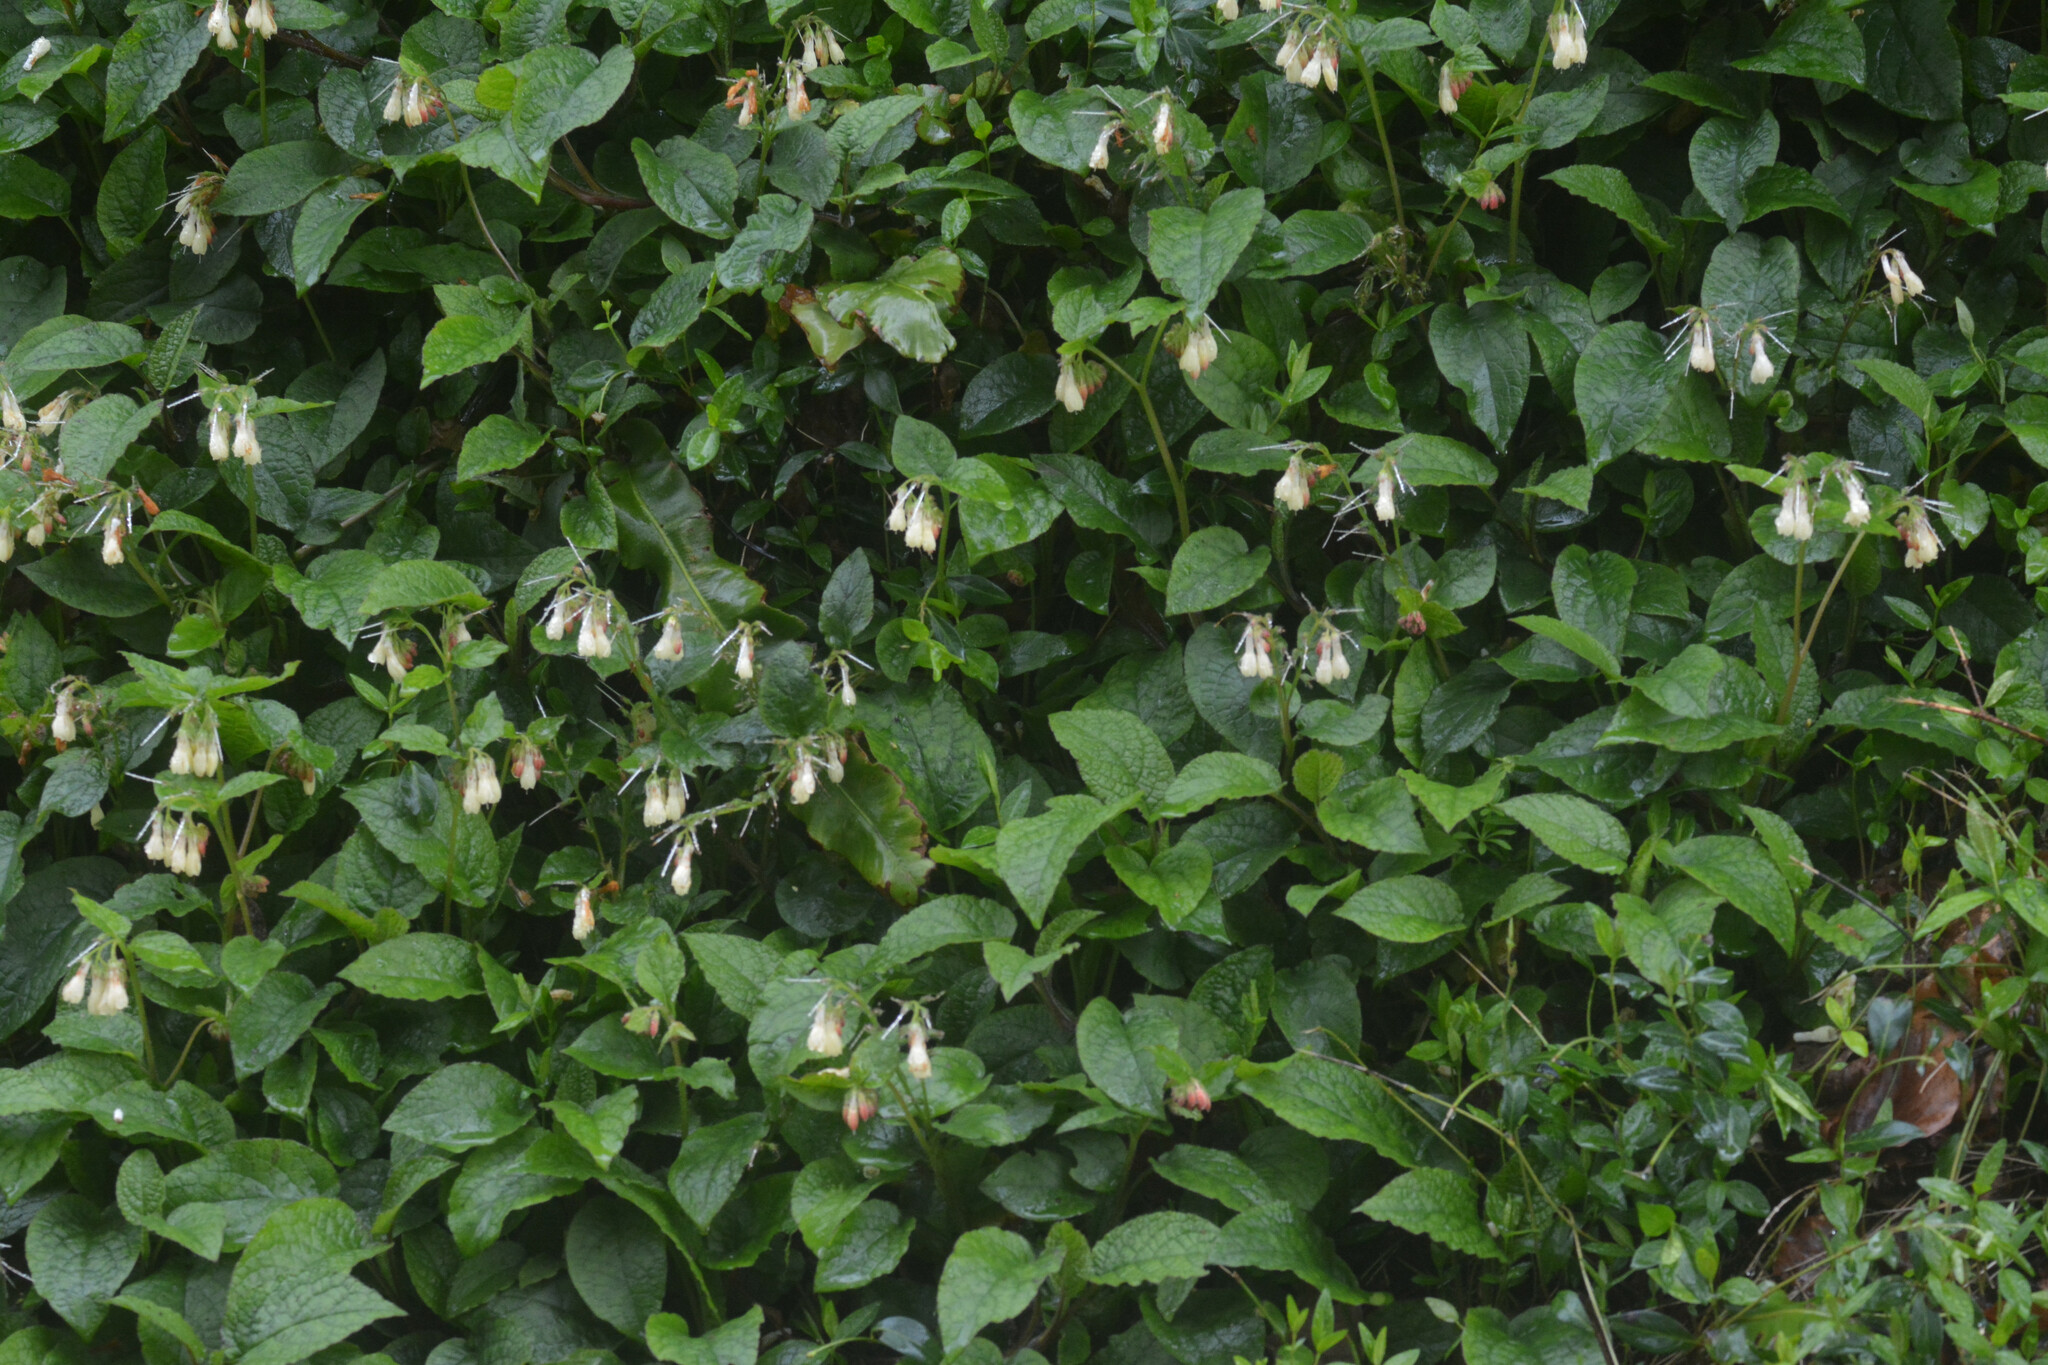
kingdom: Plantae
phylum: Tracheophyta
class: Magnoliopsida
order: Boraginales
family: Boraginaceae
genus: Symphytum
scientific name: Symphytum grandiflorum
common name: Creeping comfrey
